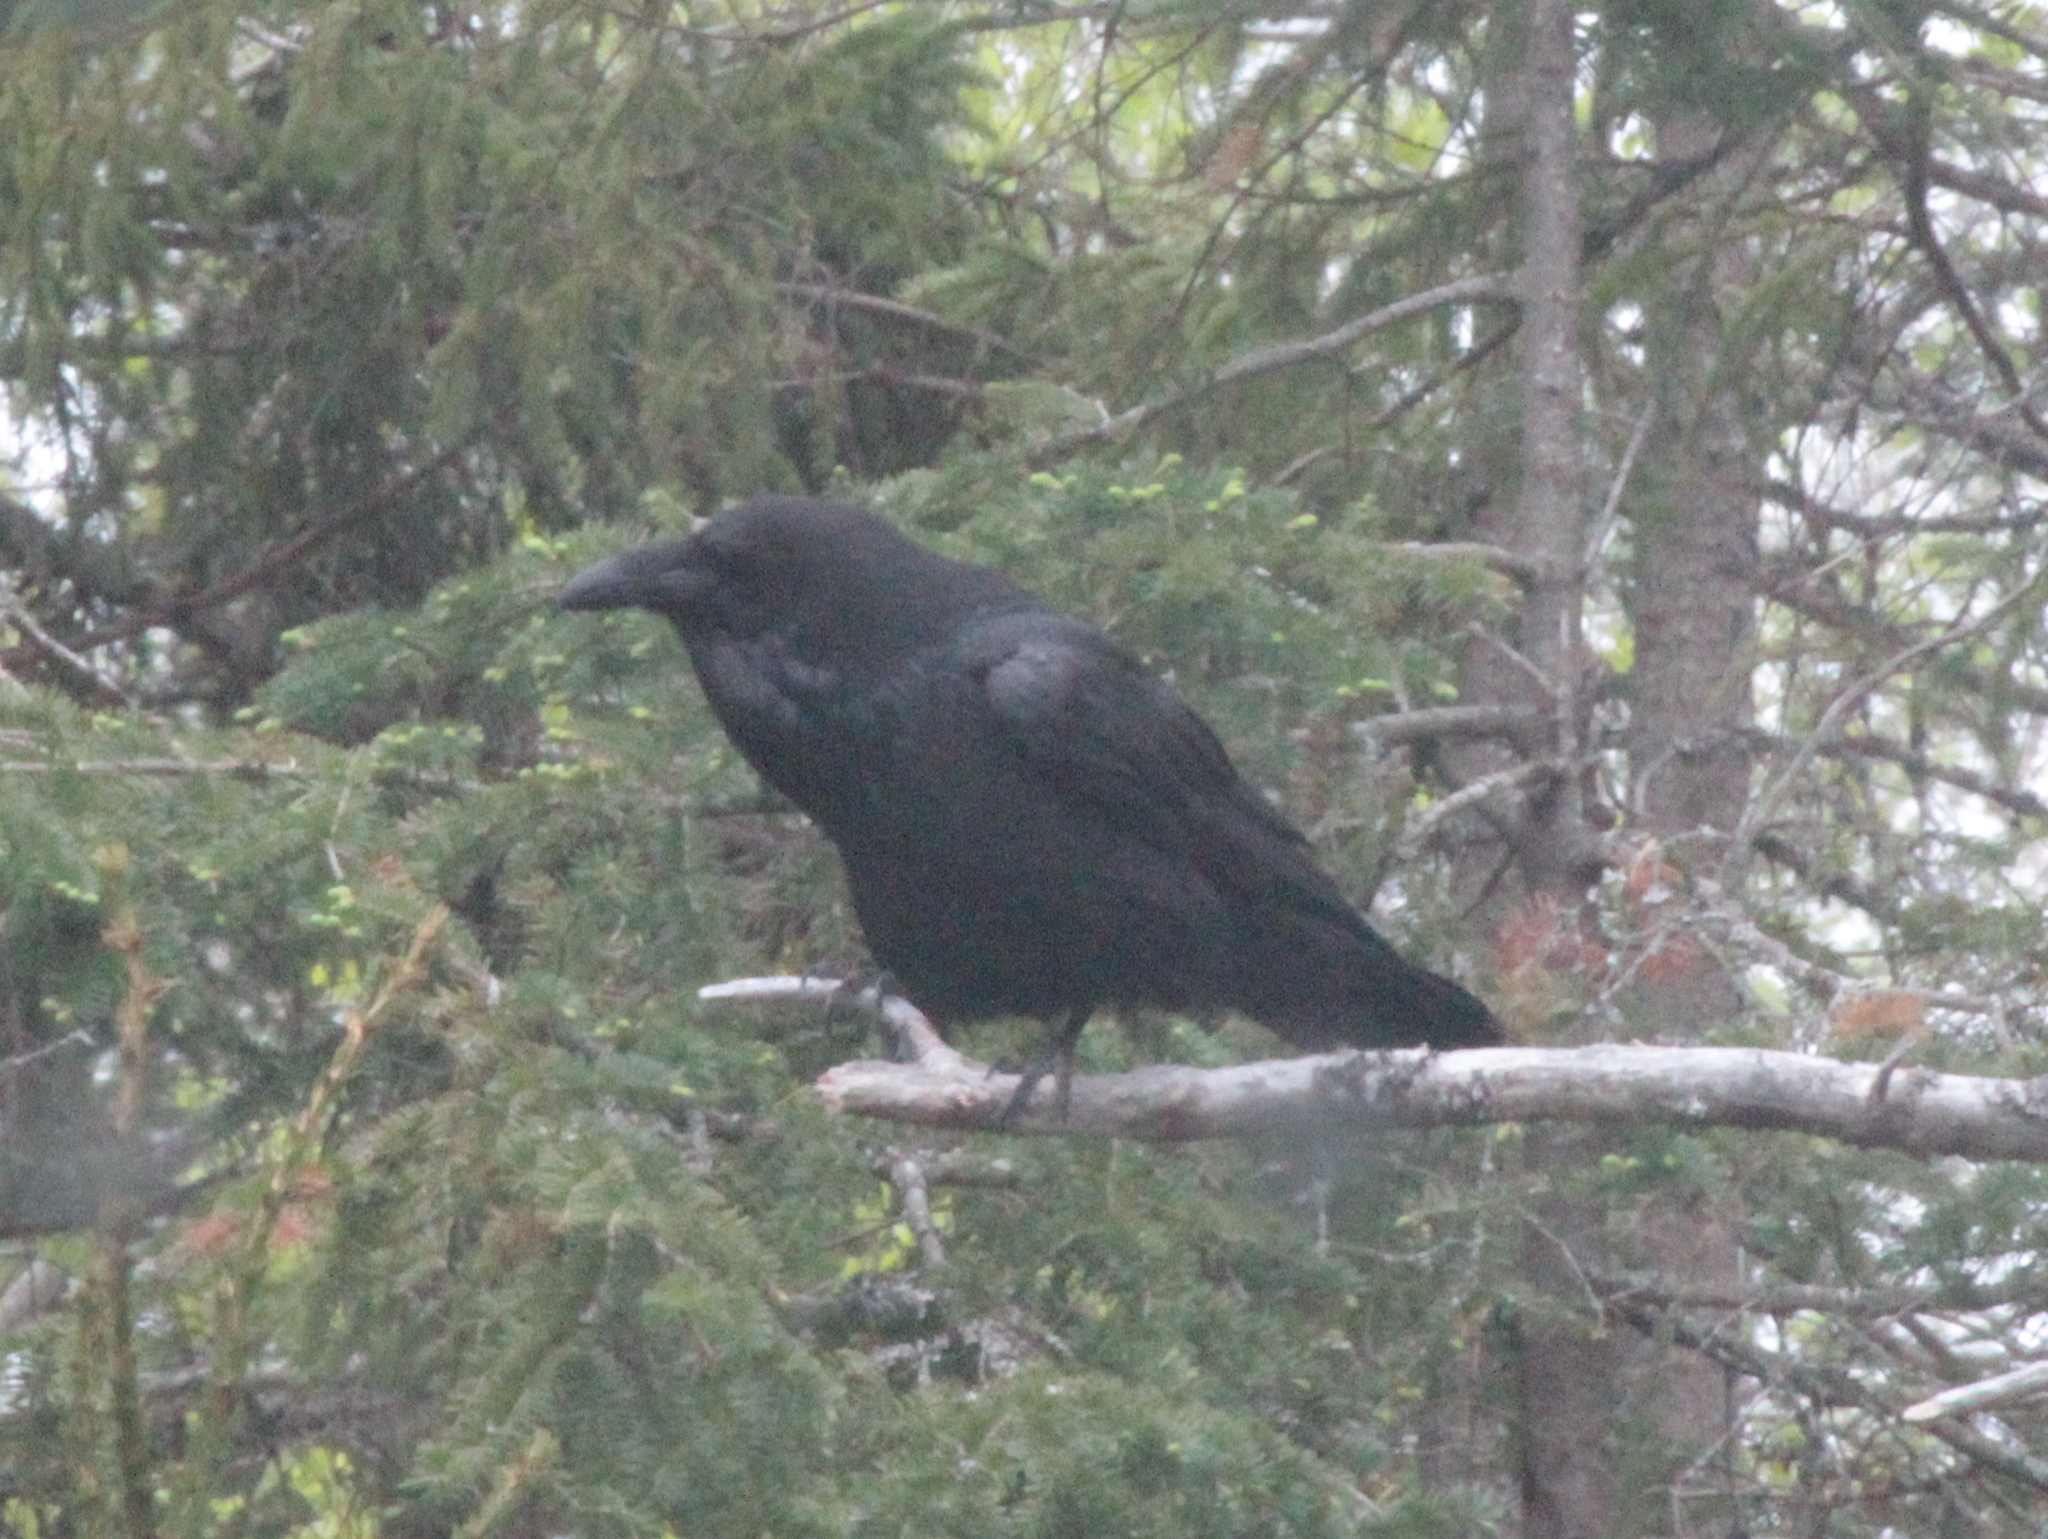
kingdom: Animalia
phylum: Chordata
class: Aves
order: Passeriformes
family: Corvidae
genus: Corvus
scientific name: Corvus corax
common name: Common raven
